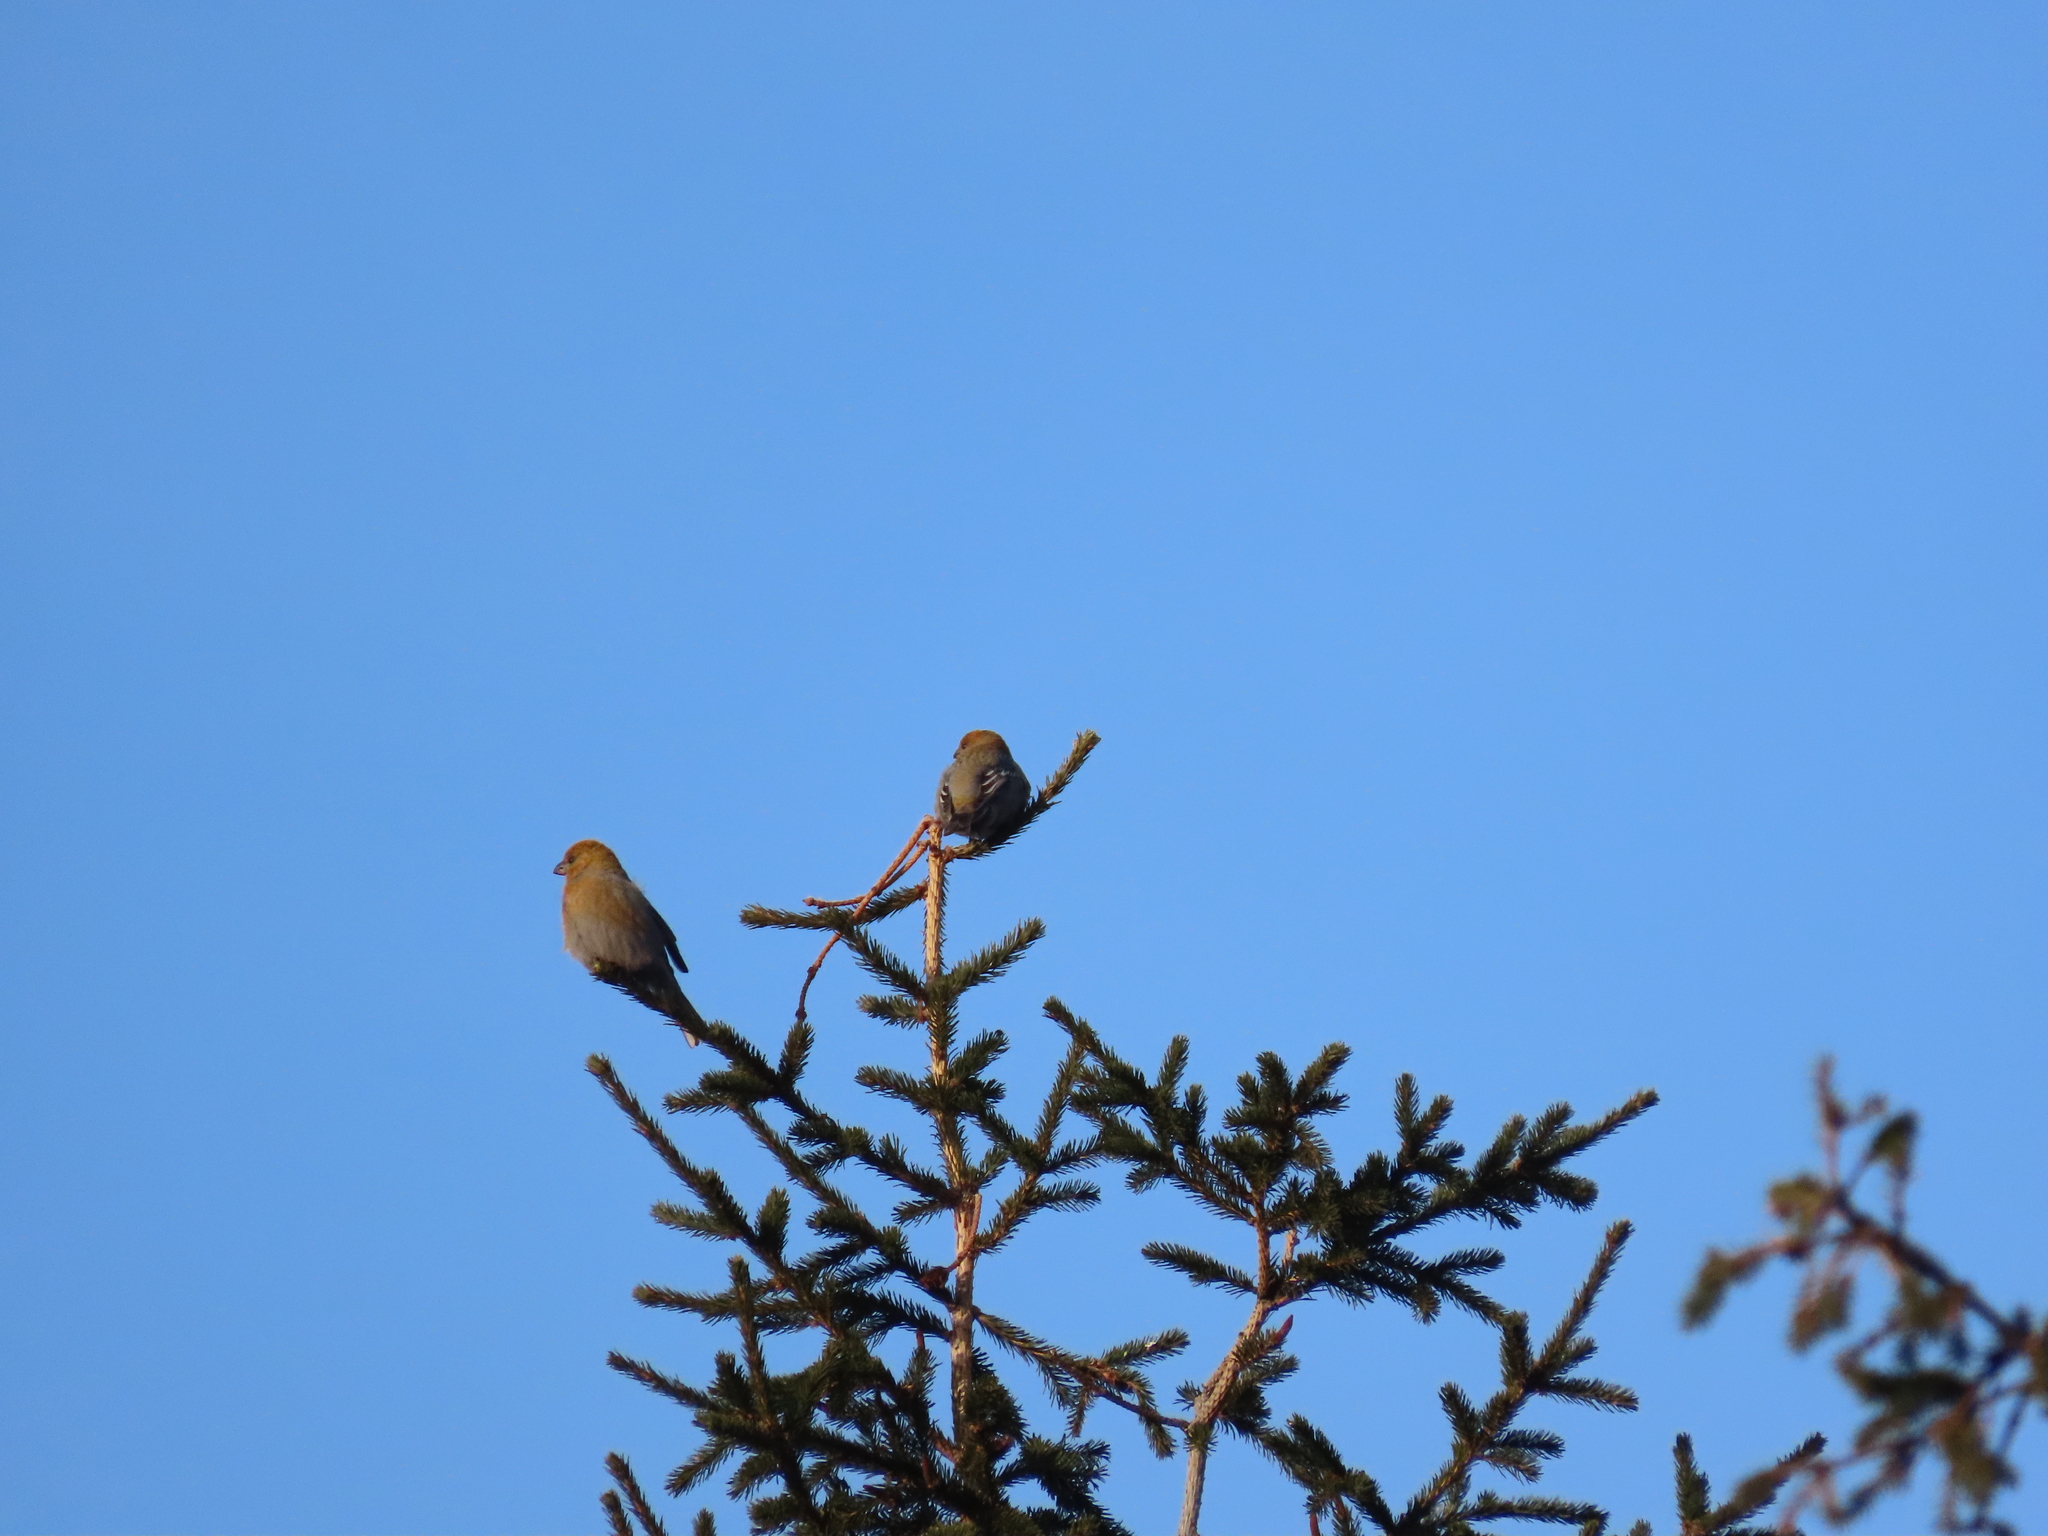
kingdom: Animalia
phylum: Chordata
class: Aves
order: Passeriformes
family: Fringillidae
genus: Pinicola
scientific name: Pinicola enucleator
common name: Pine grosbeak
